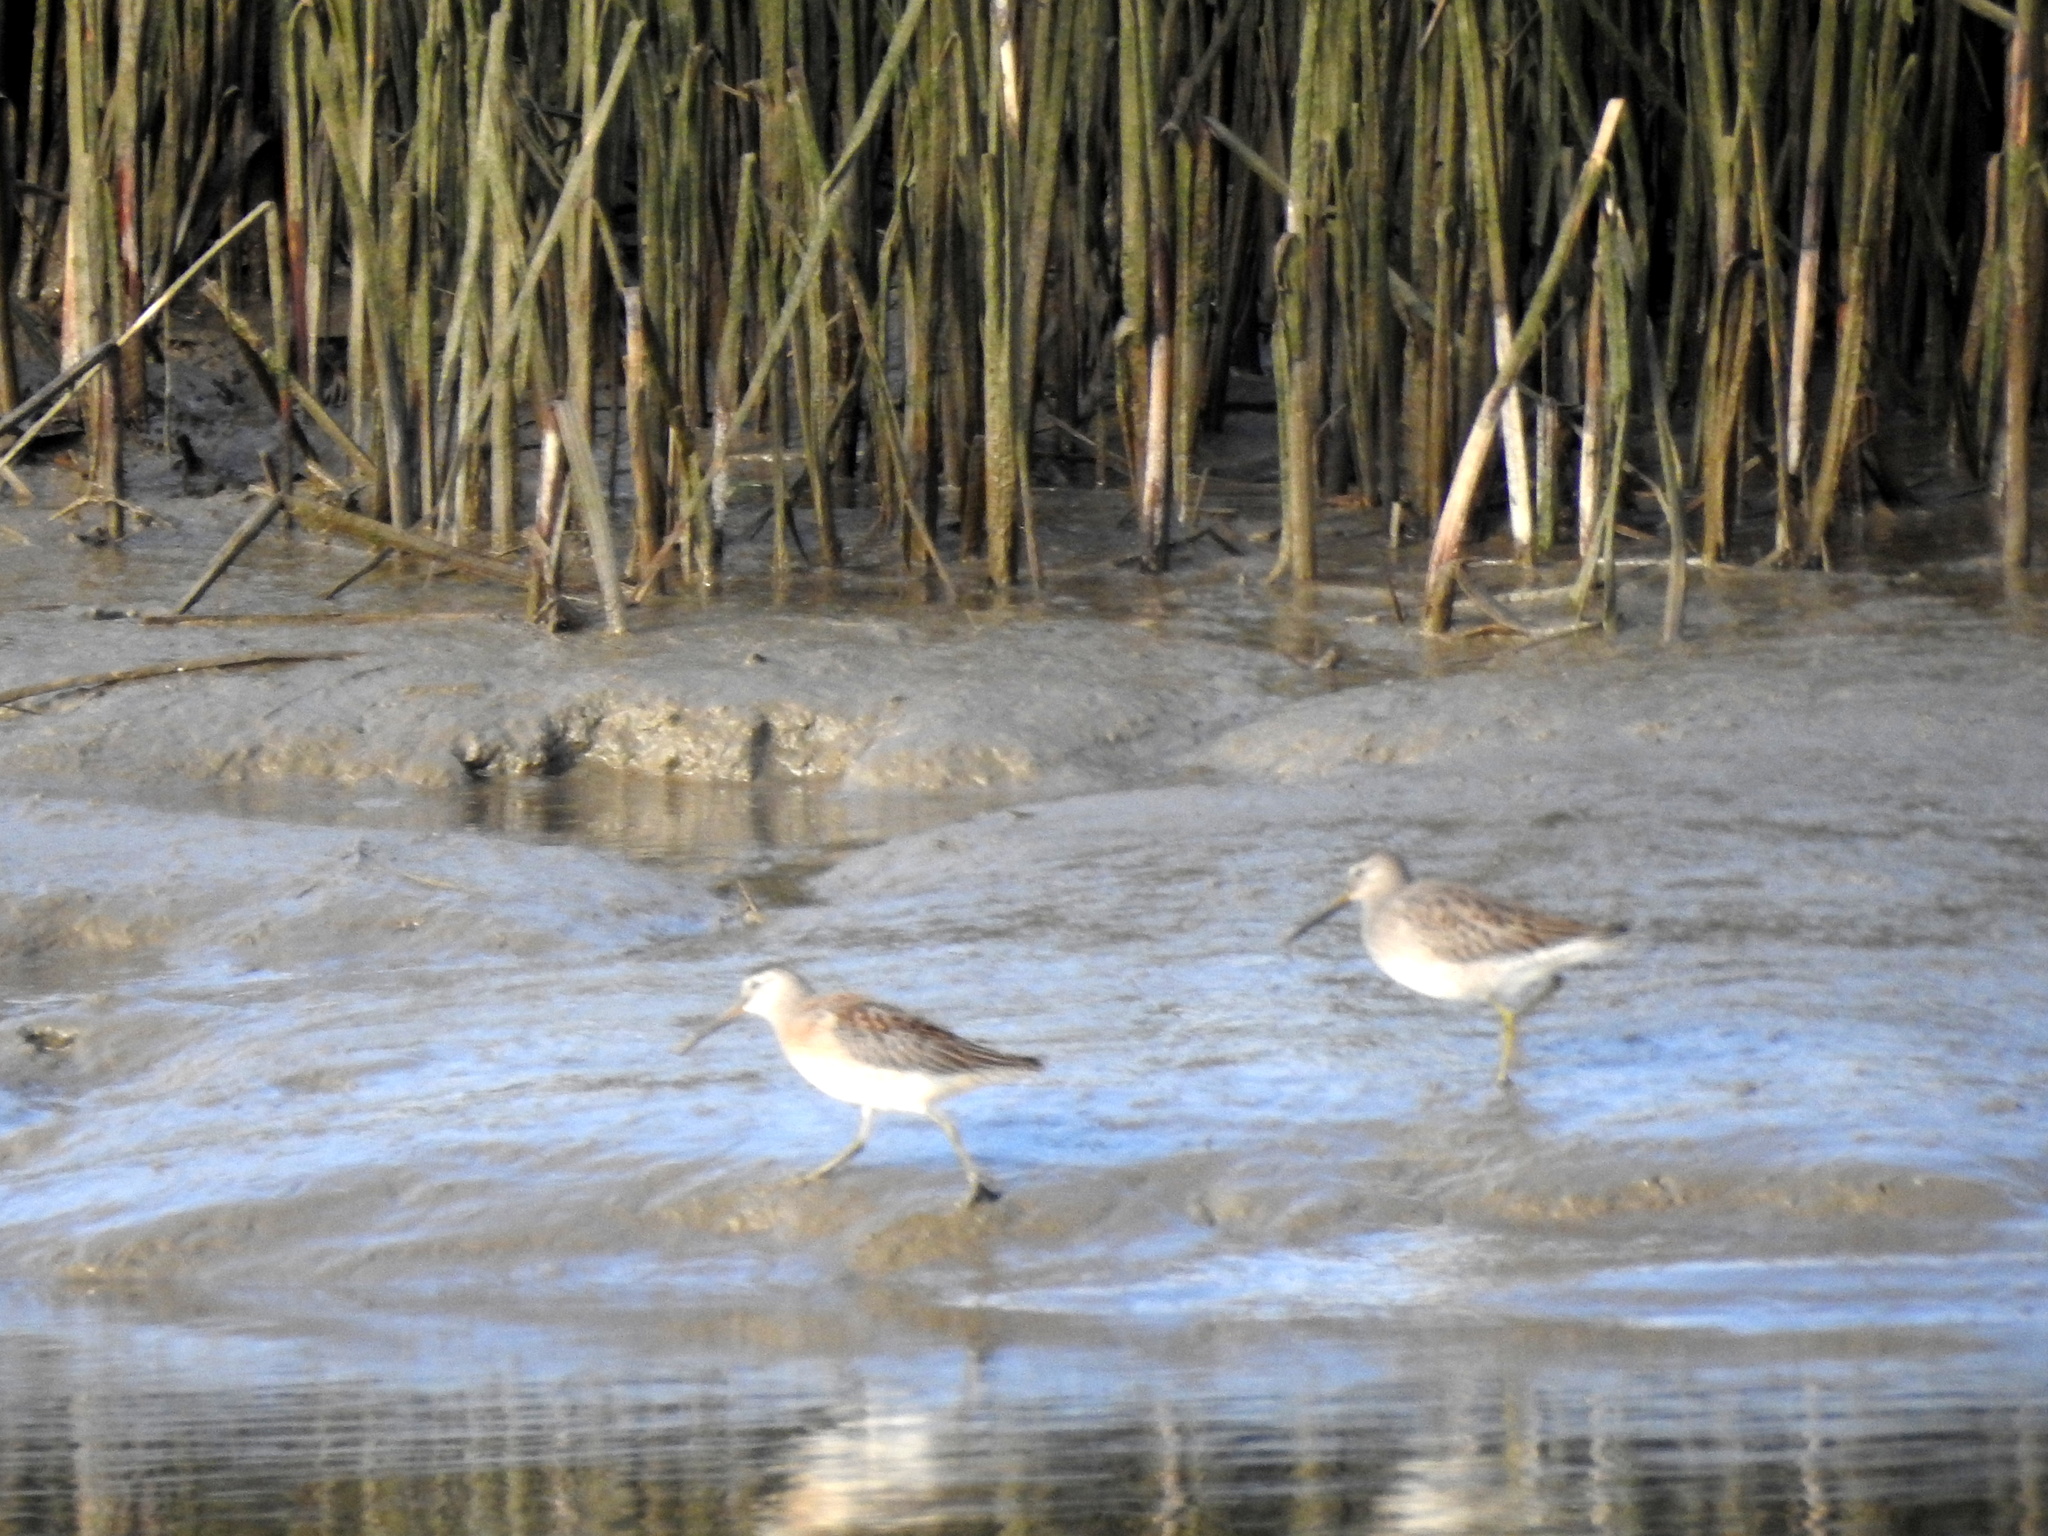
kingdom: Animalia
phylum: Chordata
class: Aves
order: Charadriiformes
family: Scolopacidae
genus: Limnodromus
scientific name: Limnodromus scolopaceus
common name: Long-billed dowitcher
